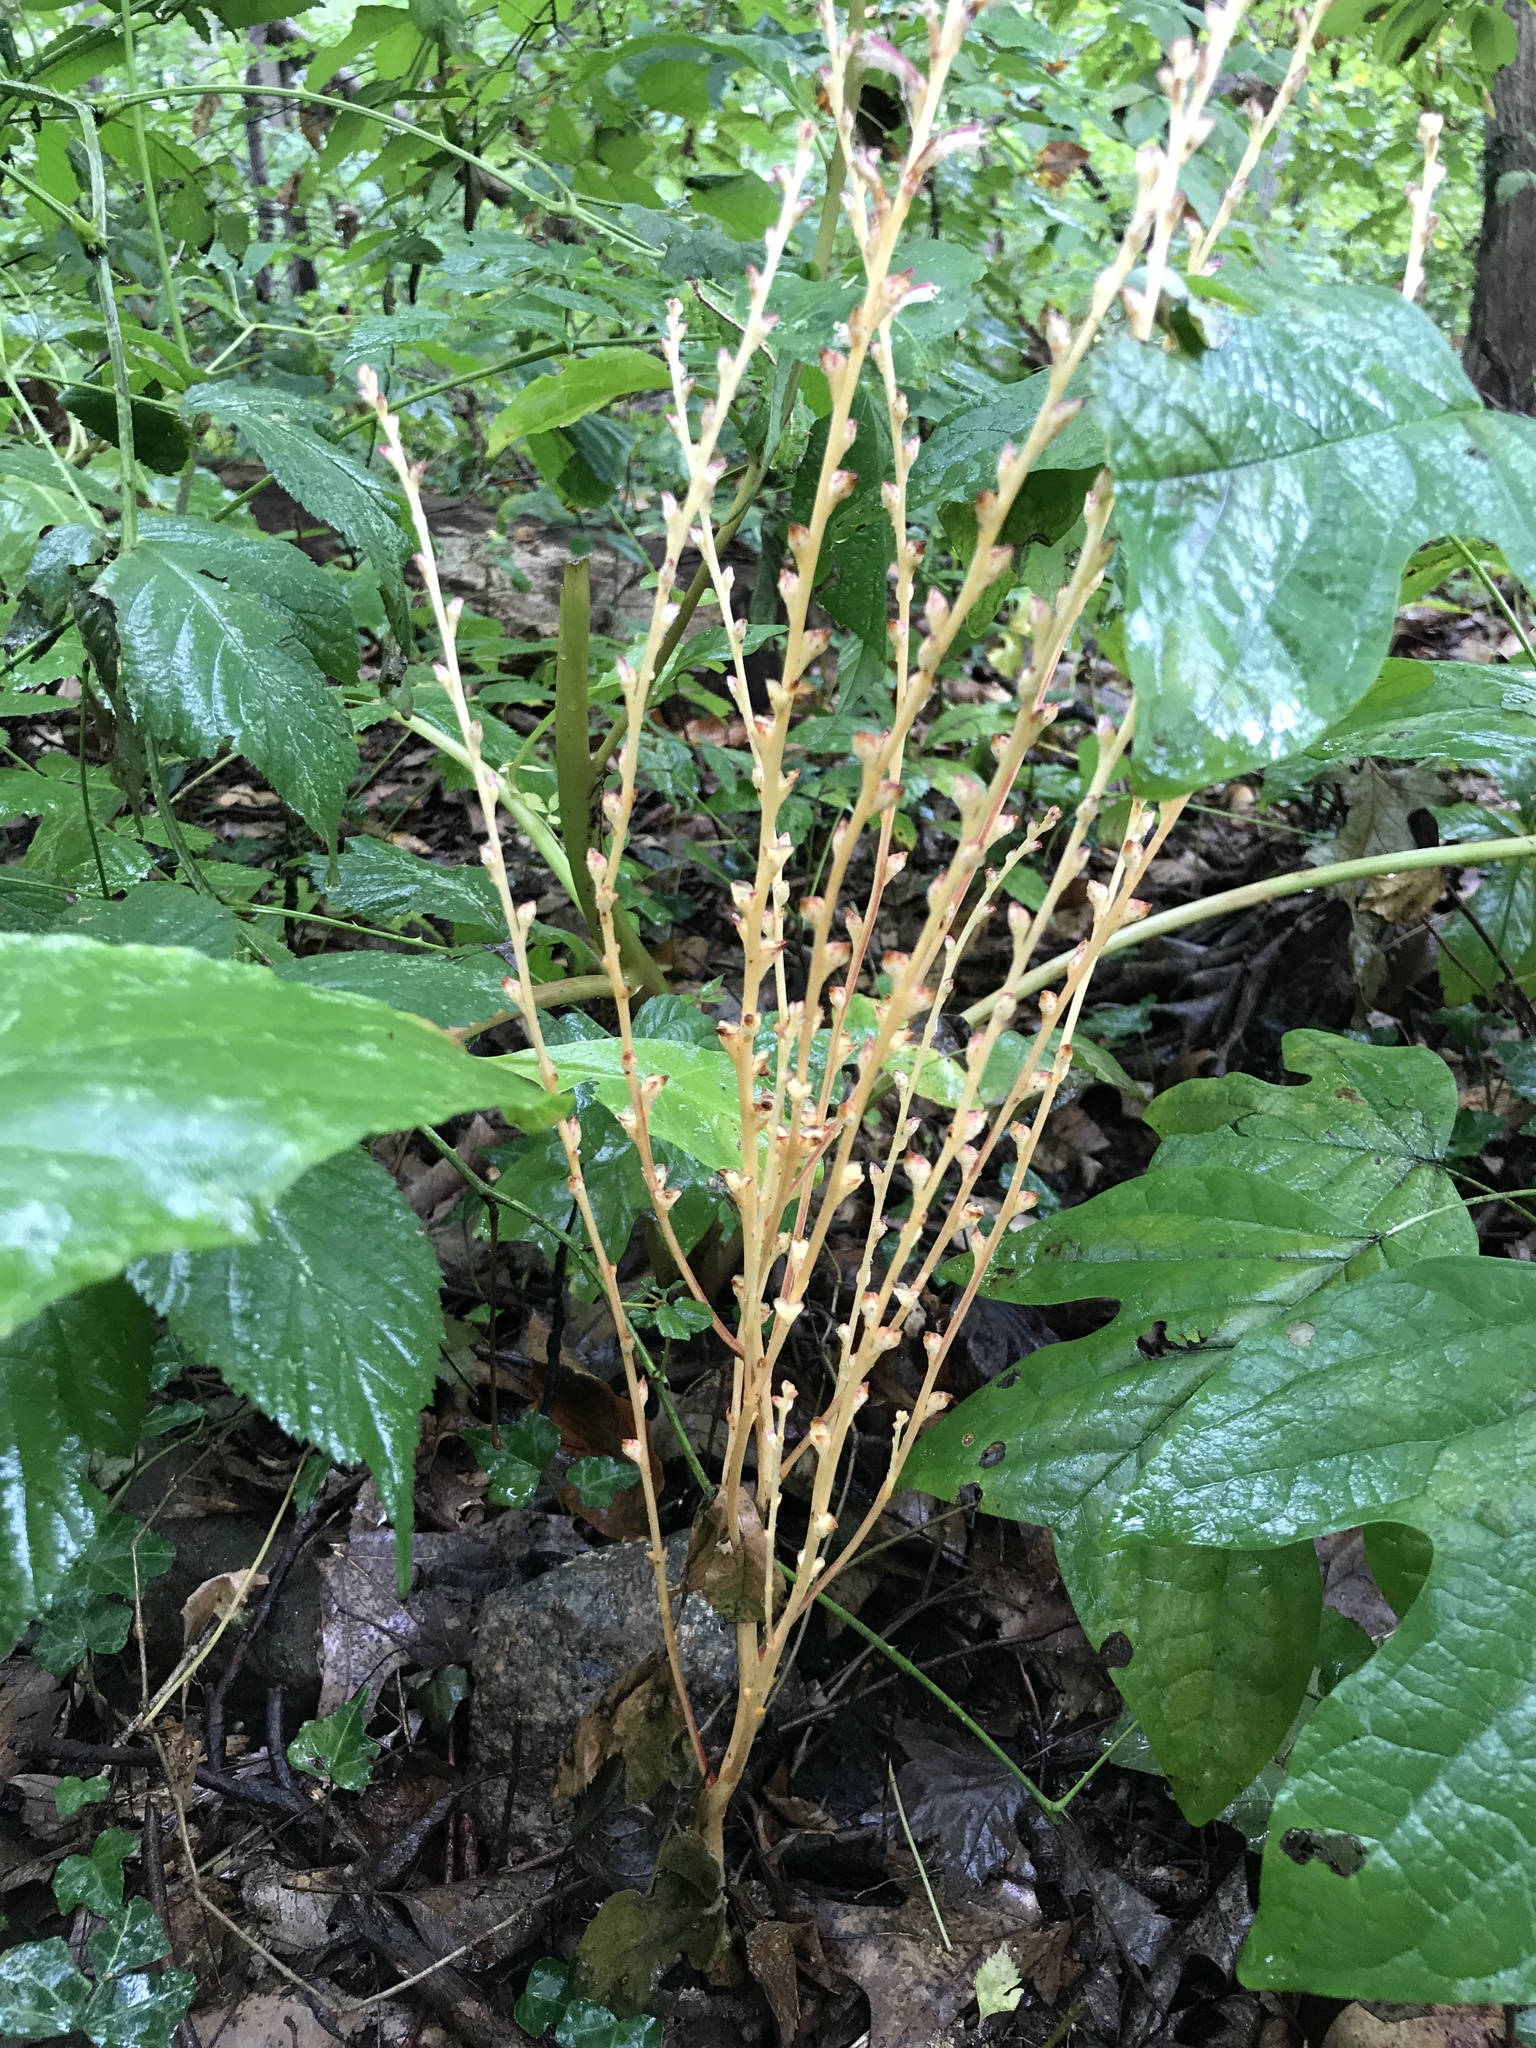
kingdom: Plantae
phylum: Tracheophyta
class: Magnoliopsida
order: Lamiales
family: Orobanchaceae
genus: Epifagus
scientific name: Epifagus virginiana
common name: Beechdrops
